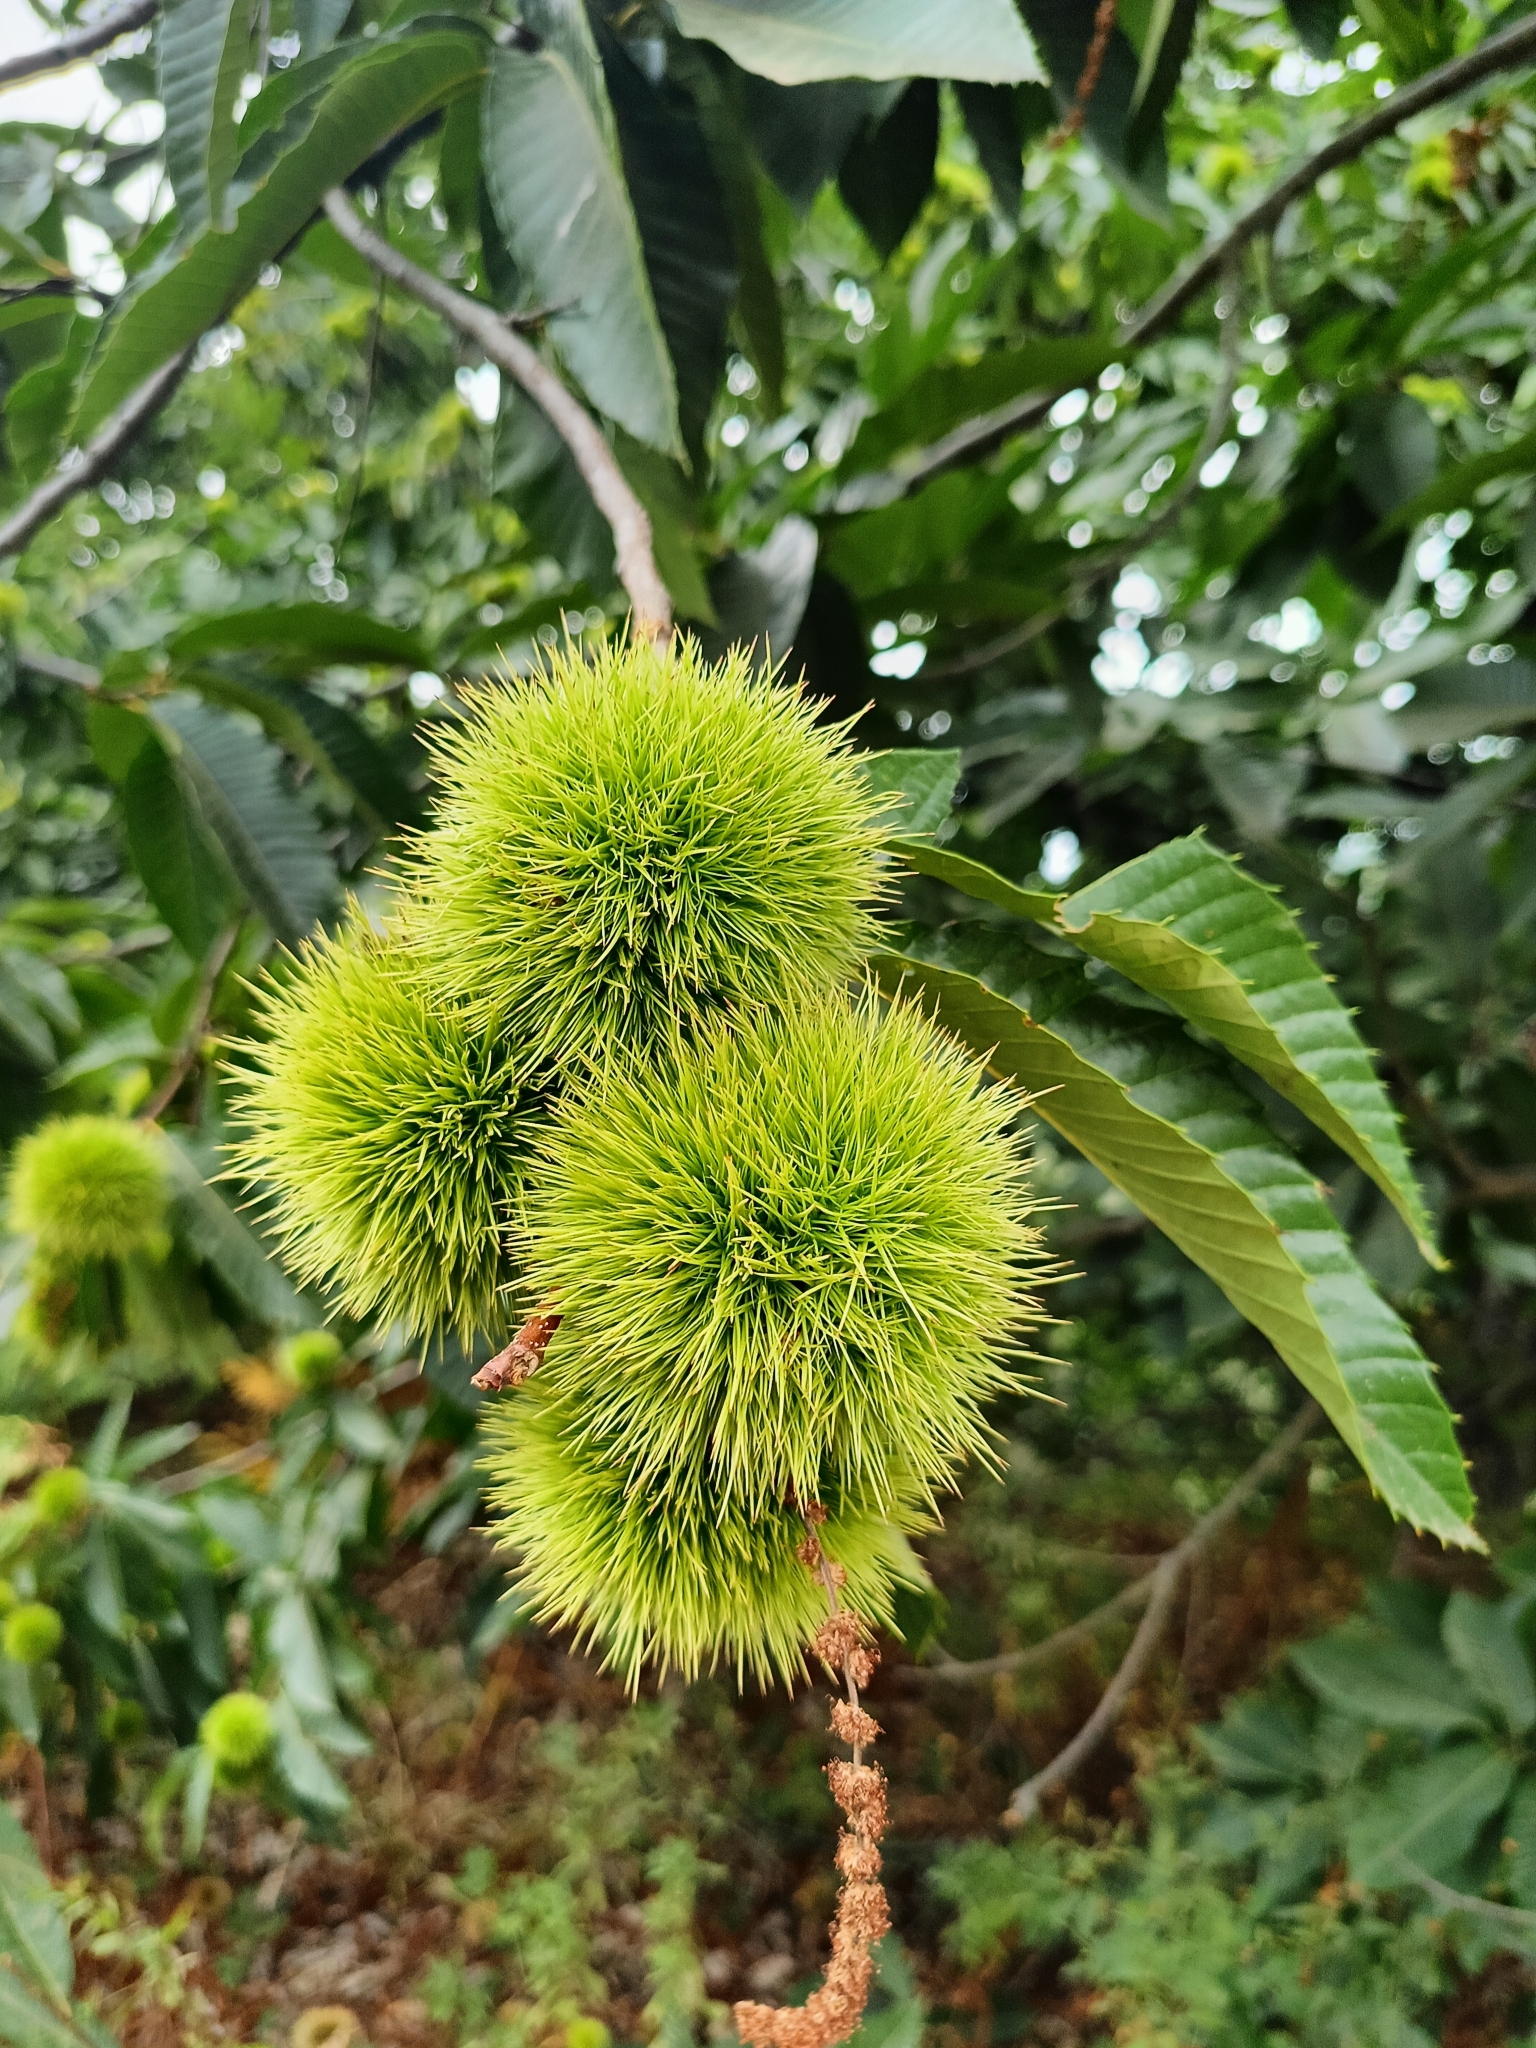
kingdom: Plantae
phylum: Tracheophyta
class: Magnoliopsida
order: Fagales
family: Fagaceae
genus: Castanea
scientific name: Castanea sativa
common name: Sweet chestnut
